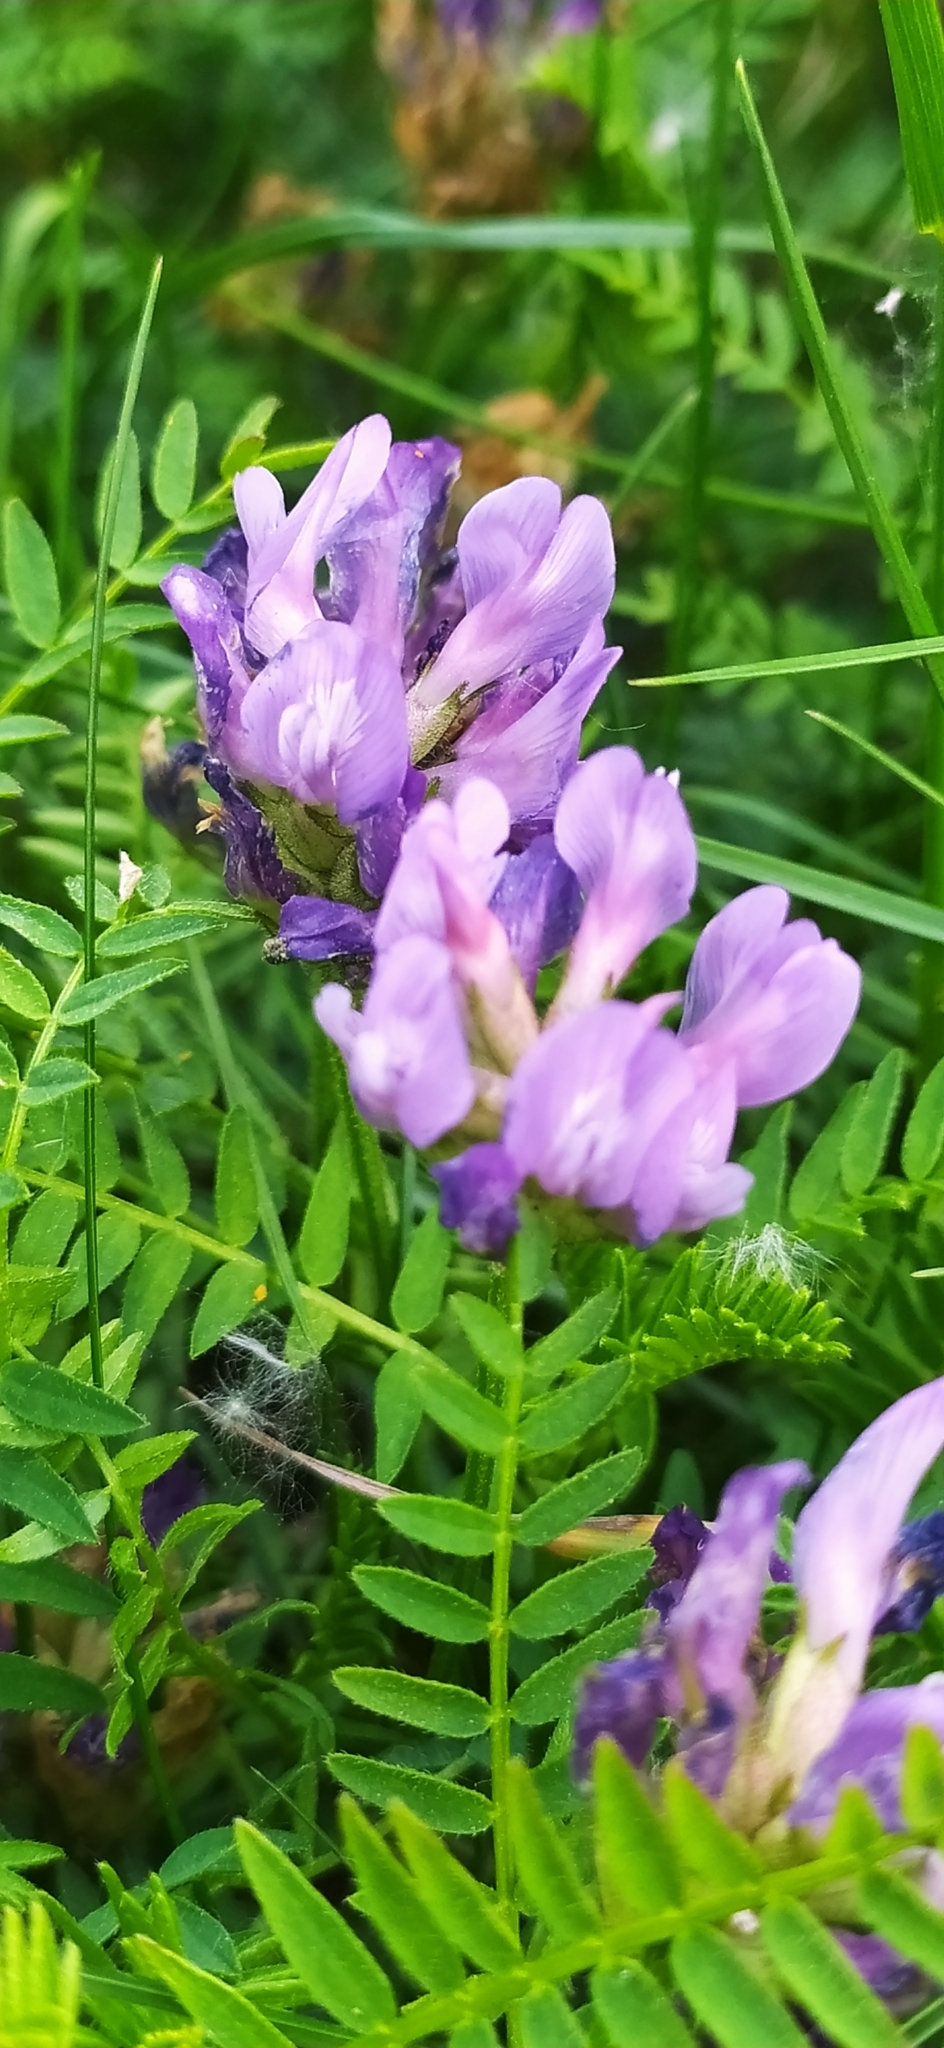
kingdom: Plantae
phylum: Tracheophyta
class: Magnoliopsida
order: Fabales
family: Fabaceae
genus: Astragalus
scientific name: Astragalus danicus
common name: Purple milk-vetch
